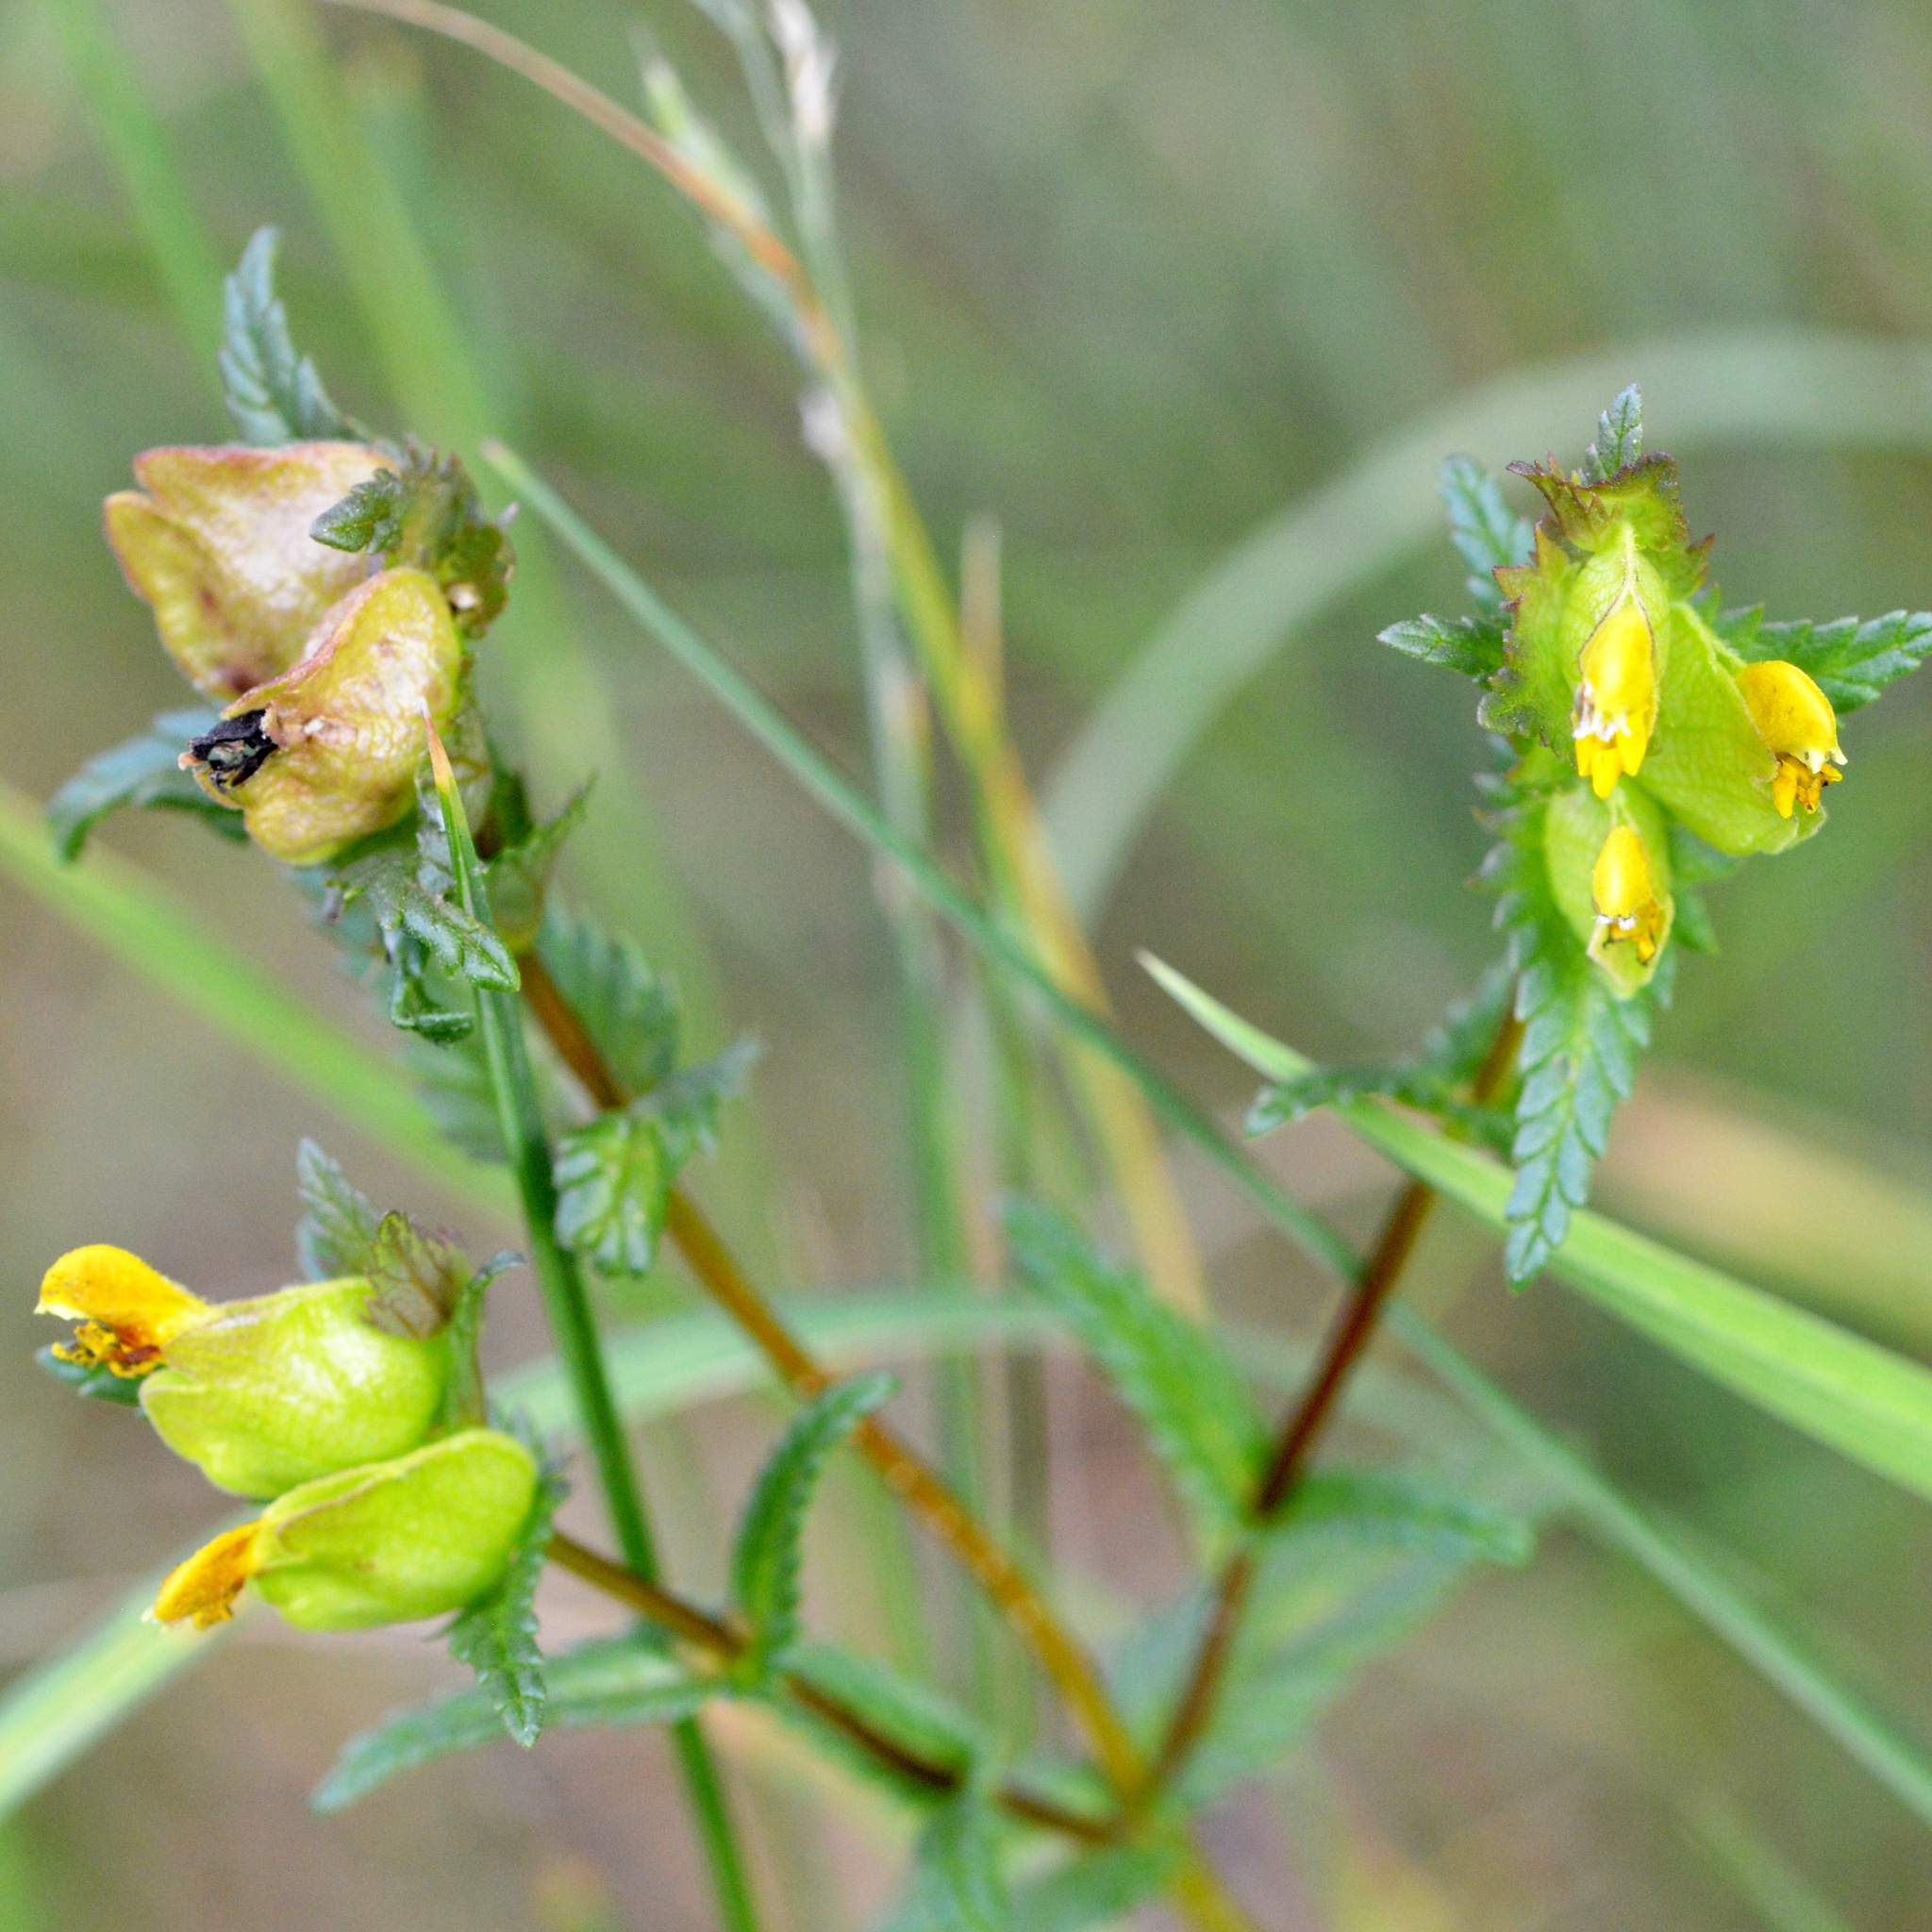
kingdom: Plantae
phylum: Tracheophyta
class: Magnoliopsida
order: Lamiales
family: Orobanchaceae
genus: Rhinanthus
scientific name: Rhinanthus minor
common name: Yellow-rattle
